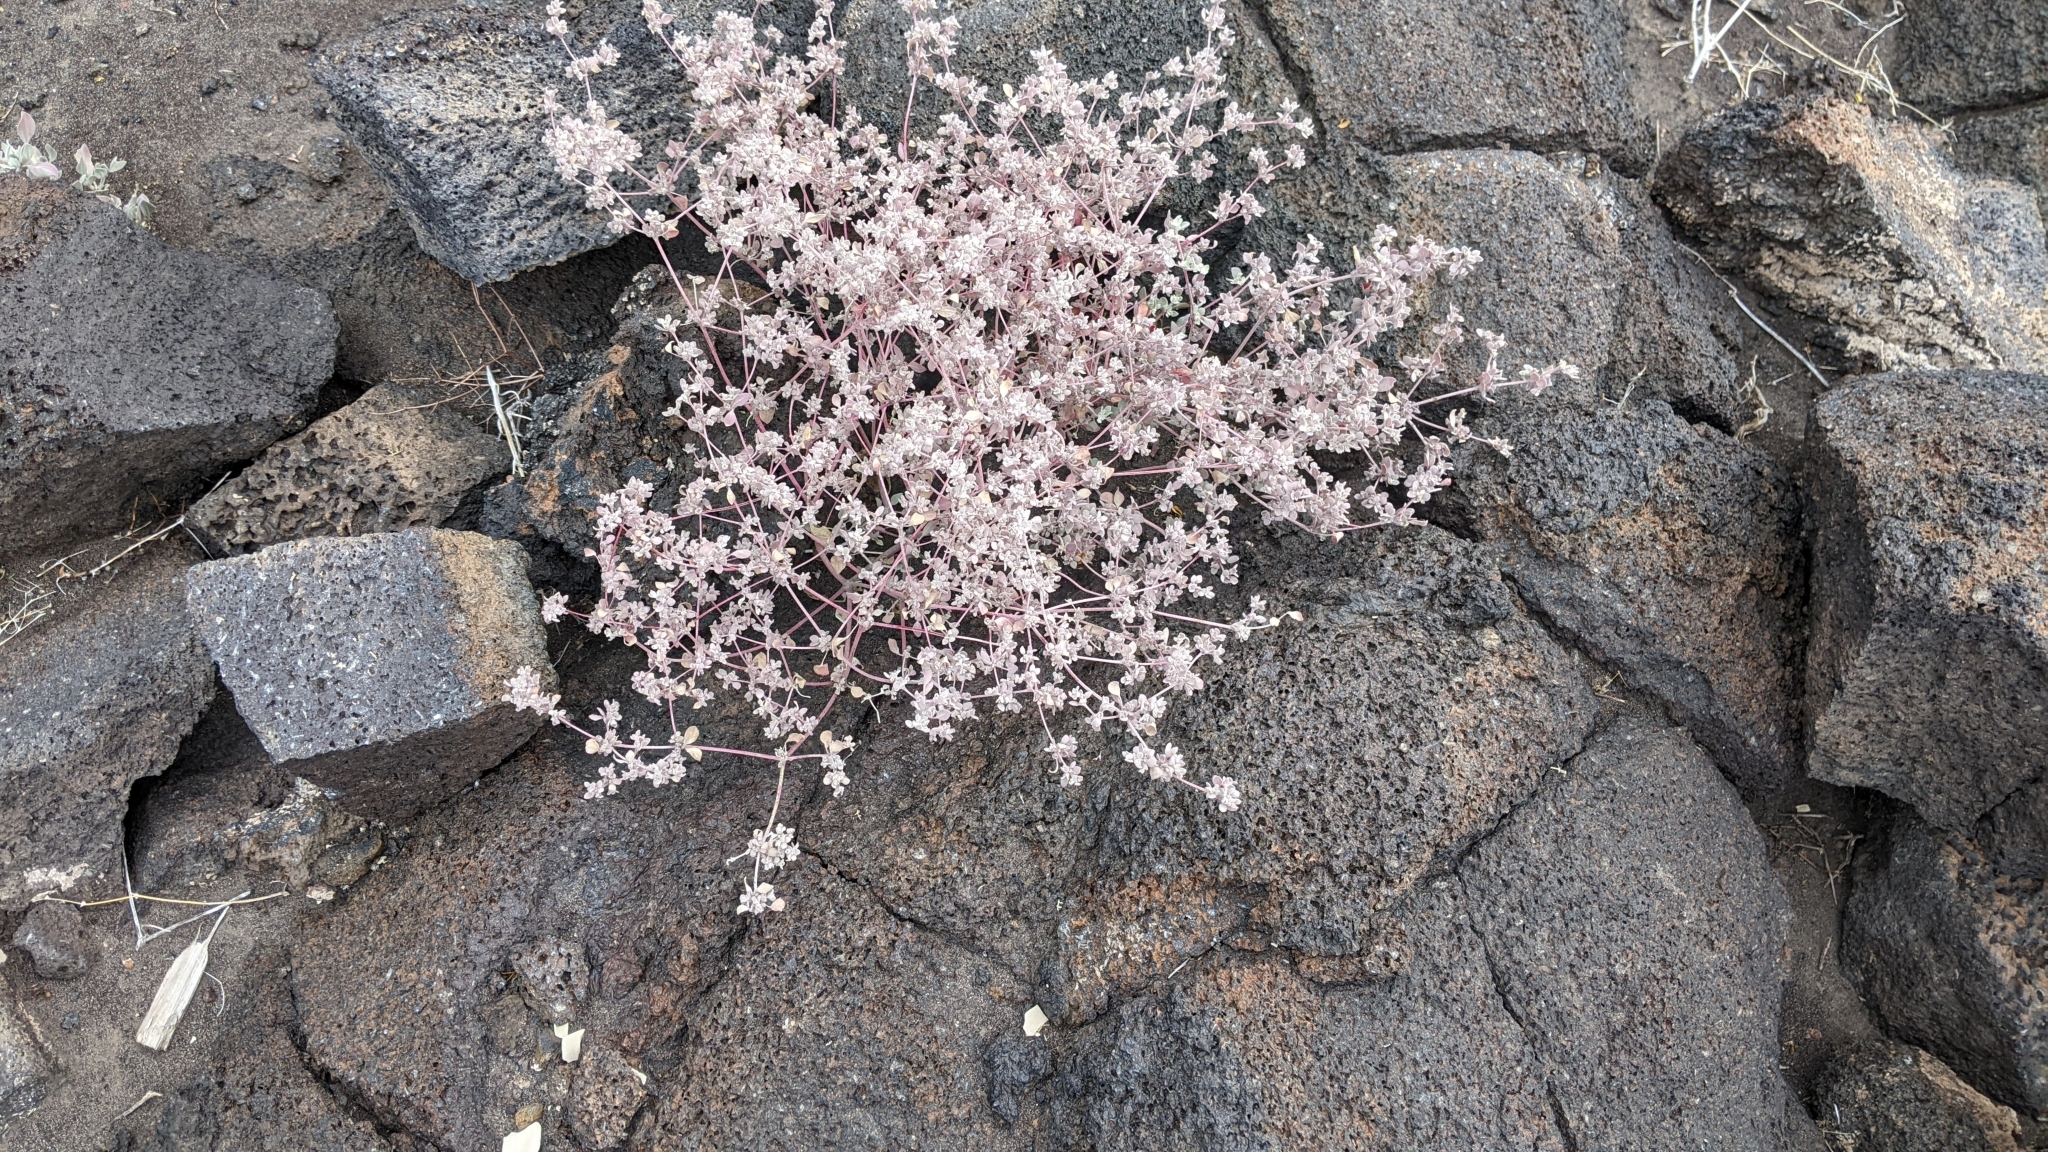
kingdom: Plantae
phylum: Tracheophyta
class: Magnoliopsida
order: Caryophyllales
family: Amaranthaceae
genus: Tidestromia
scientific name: Tidestromia suffruticosa
